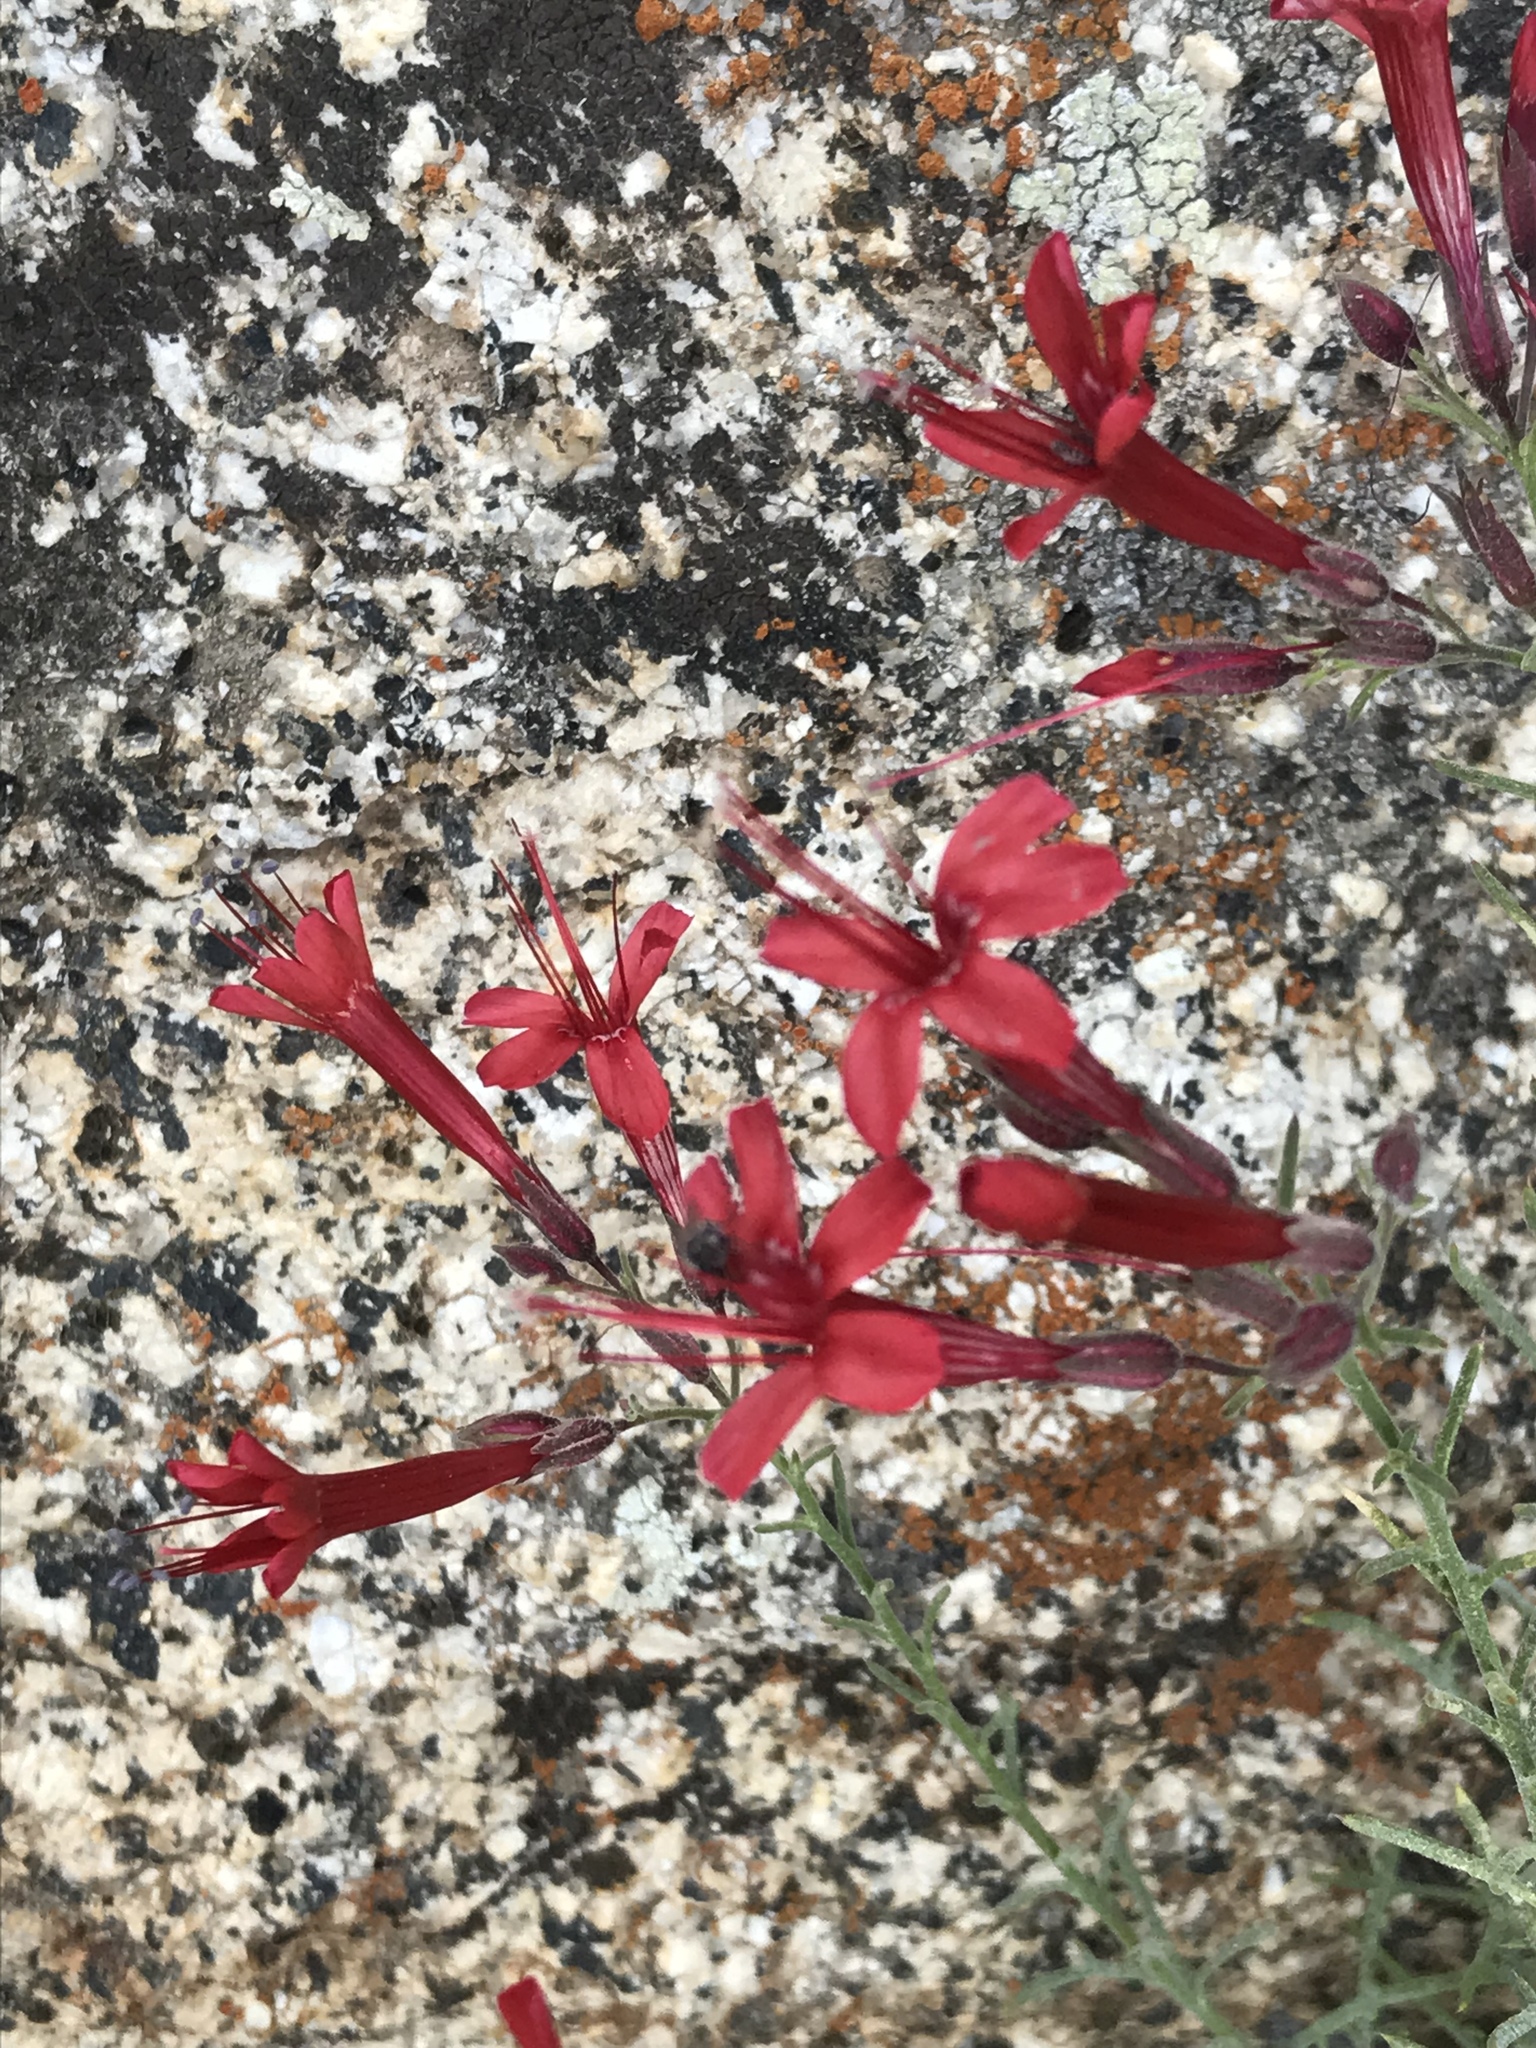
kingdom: Plantae
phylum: Tracheophyta
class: Magnoliopsida
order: Ericales
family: Polemoniaceae
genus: Ipomopsis
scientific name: Ipomopsis tenuifolia
